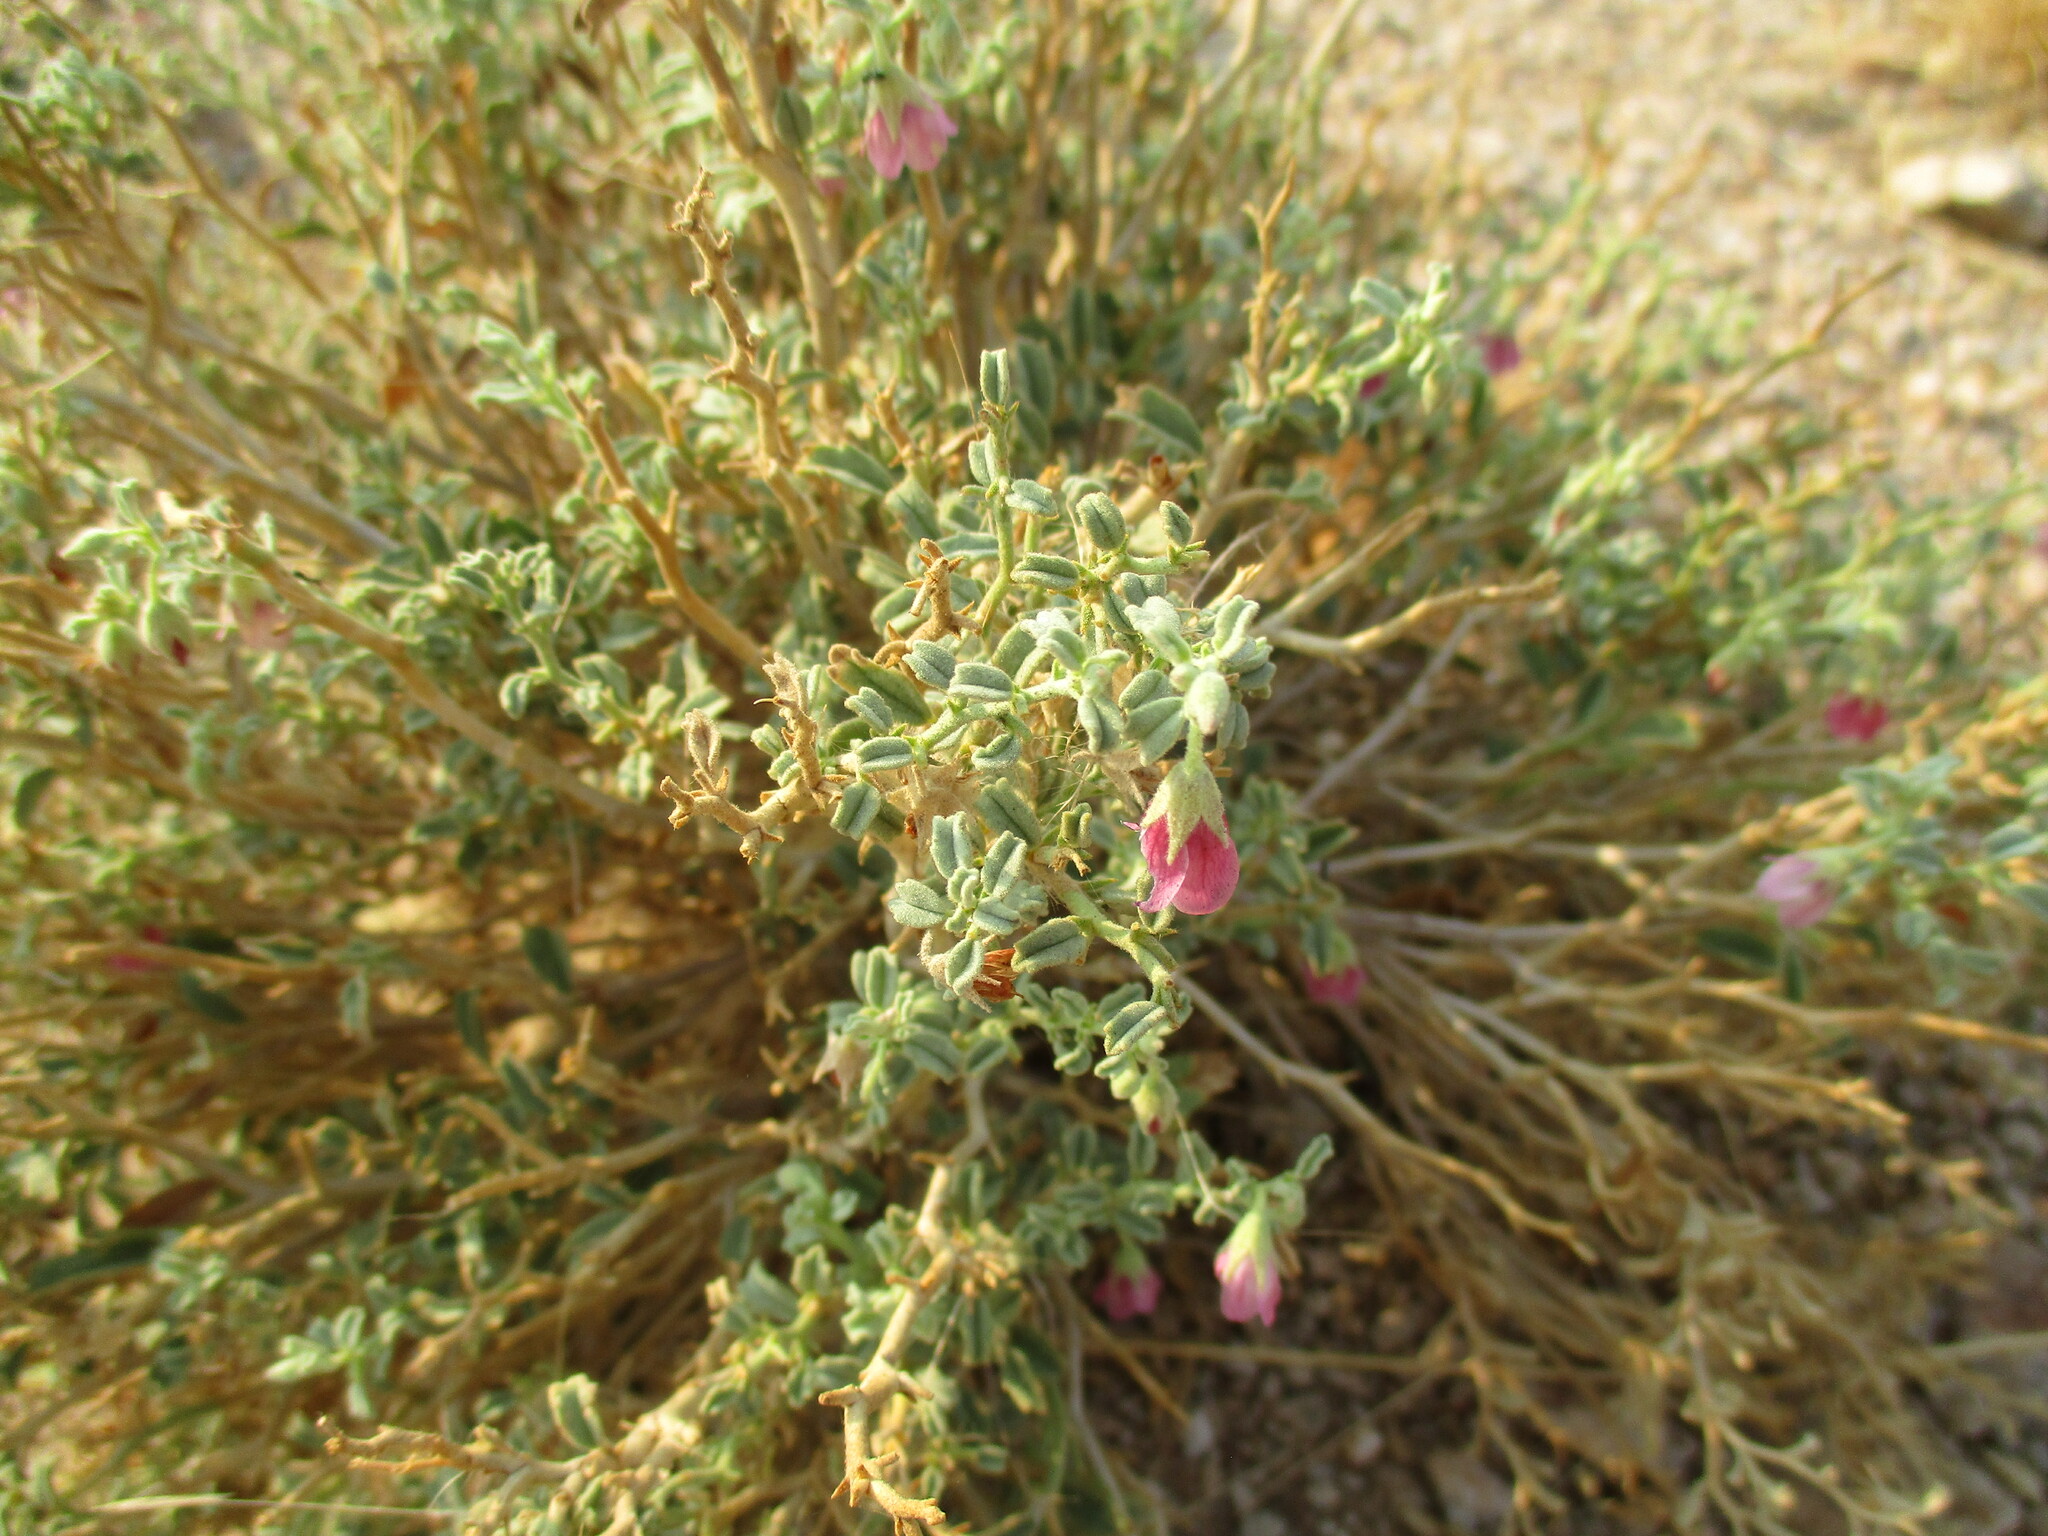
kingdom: Plantae
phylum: Tracheophyta
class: Magnoliopsida
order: Malvales
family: Malvaceae
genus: Hermannia
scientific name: Hermannia affinis
